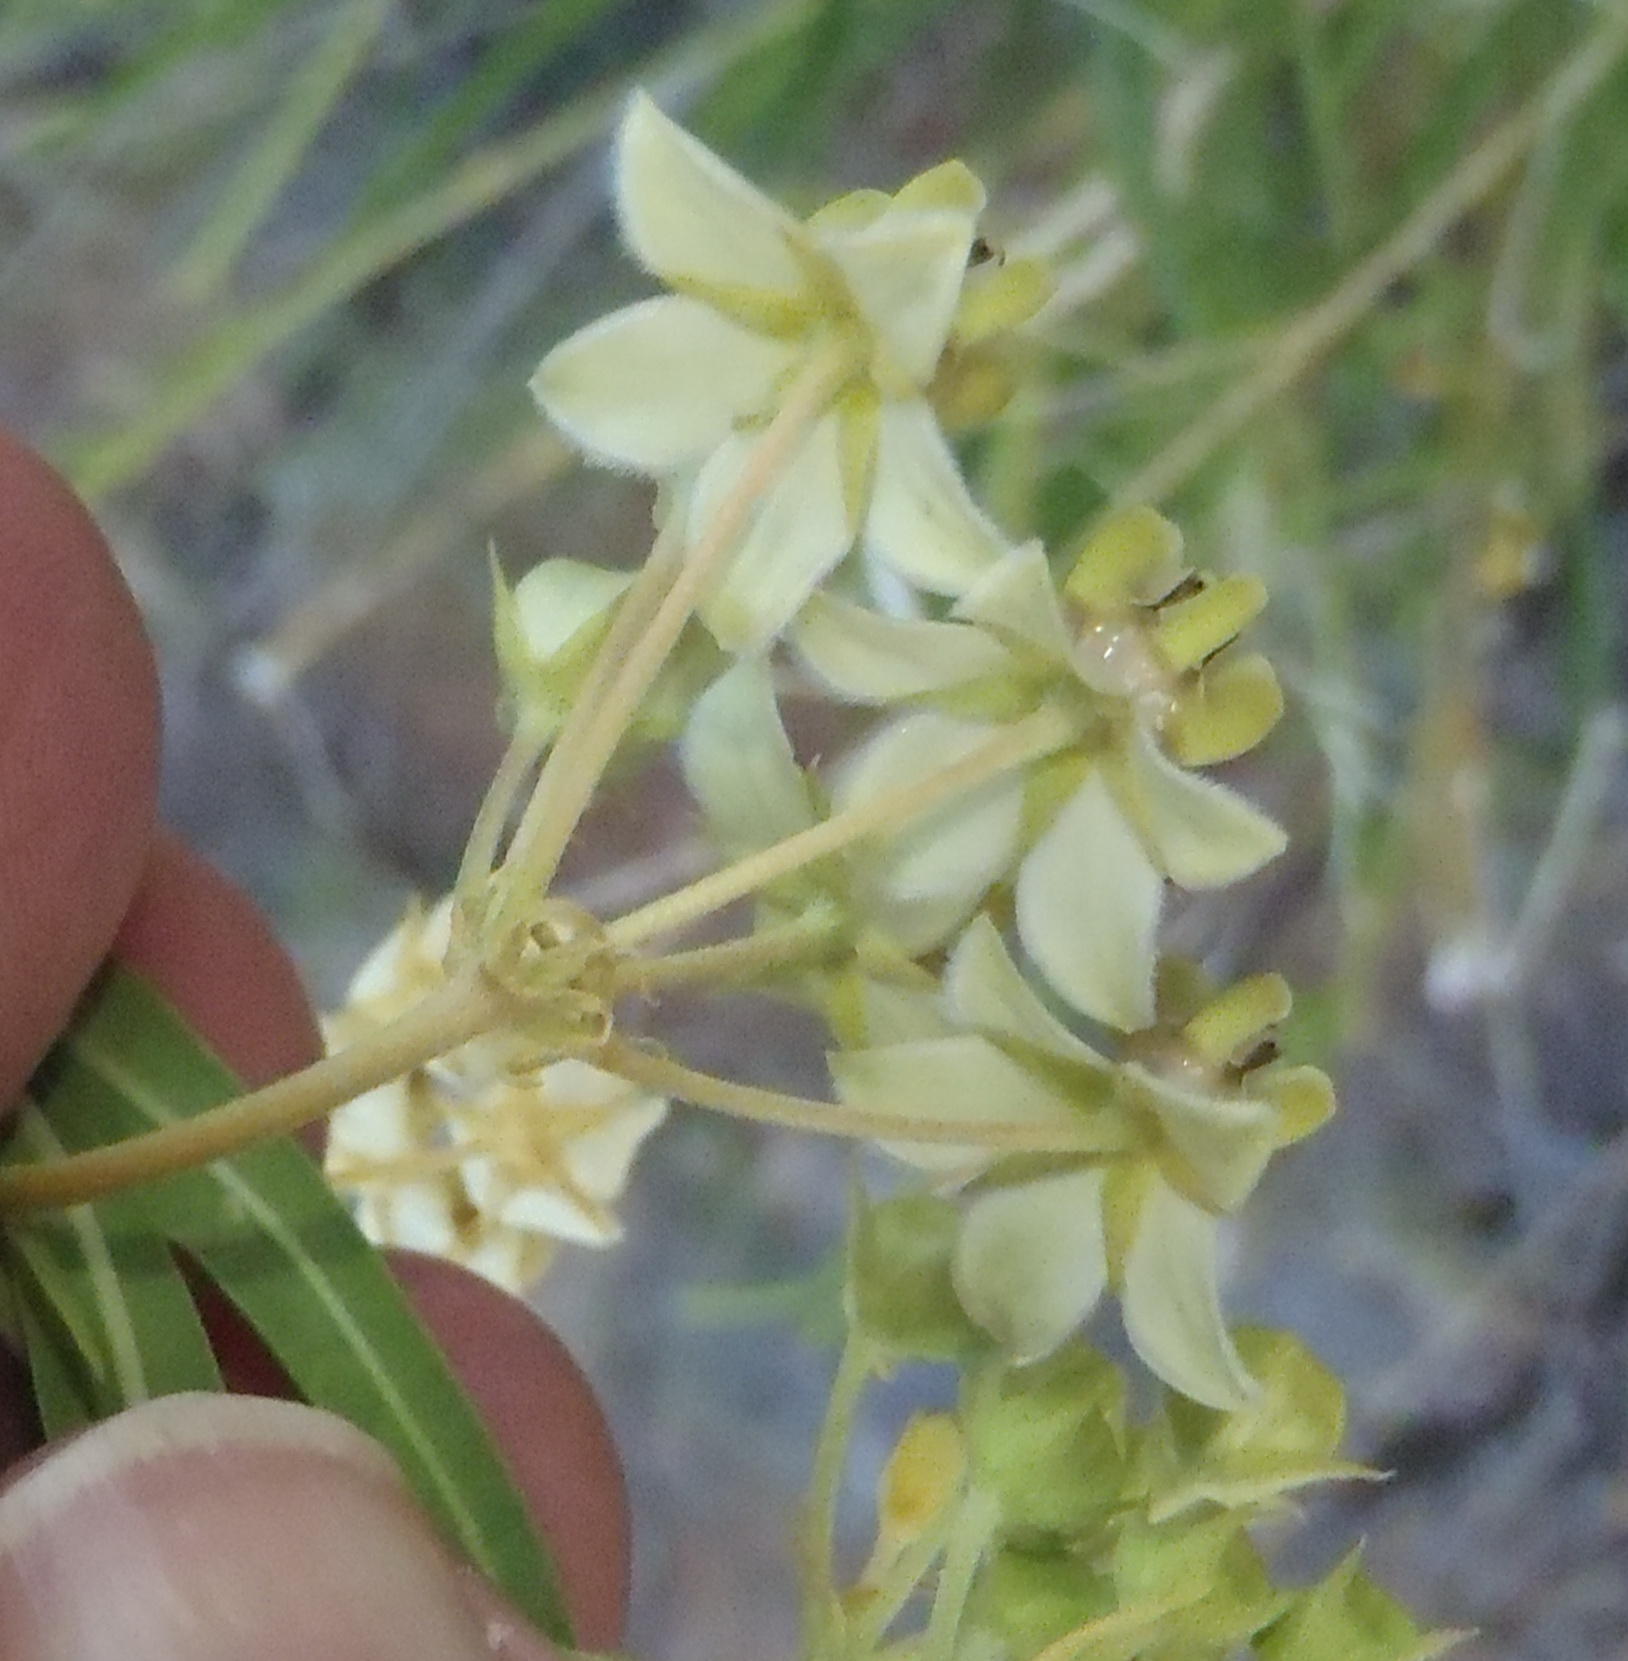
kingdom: Plantae
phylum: Tracheophyta
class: Magnoliopsida
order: Gentianales
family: Apocynaceae
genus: Gomphocarpus
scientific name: Gomphocarpus fruticosus
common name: Milkweed
